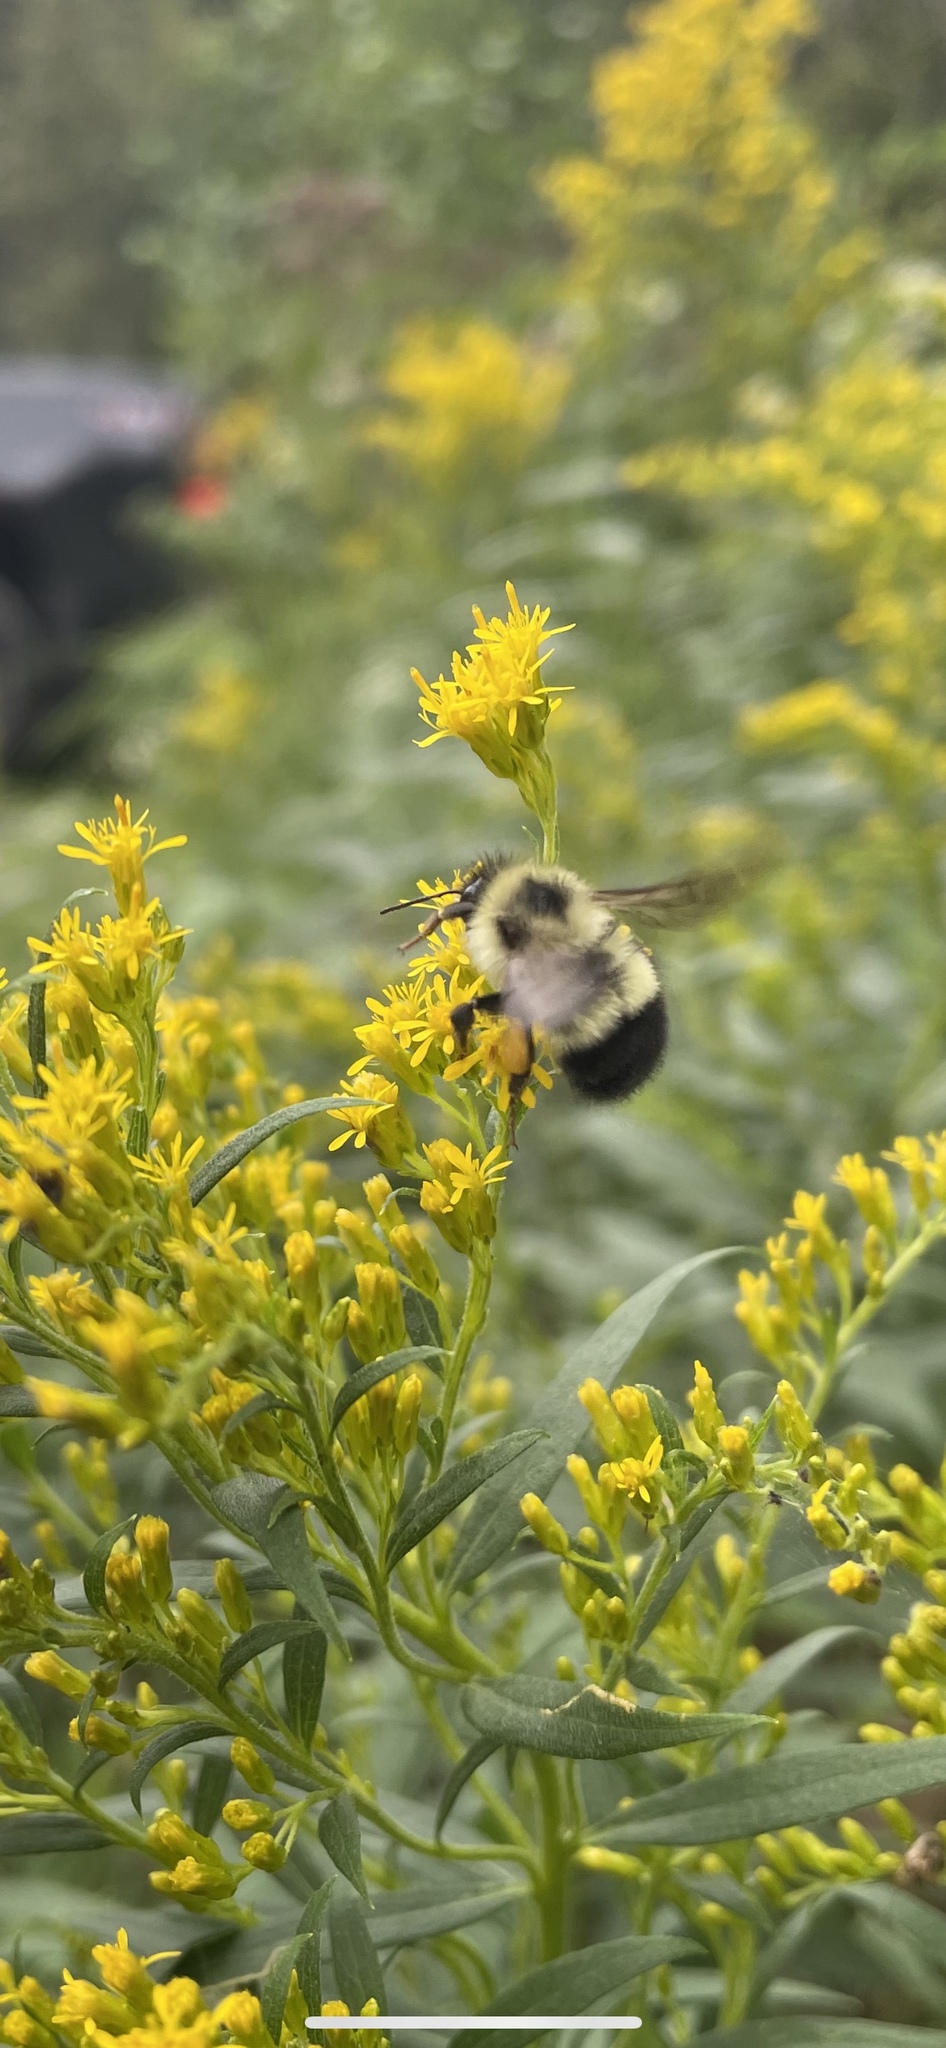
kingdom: Animalia
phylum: Arthropoda
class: Insecta
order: Hymenoptera
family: Apidae
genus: Pyrobombus
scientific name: Pyrobombus
